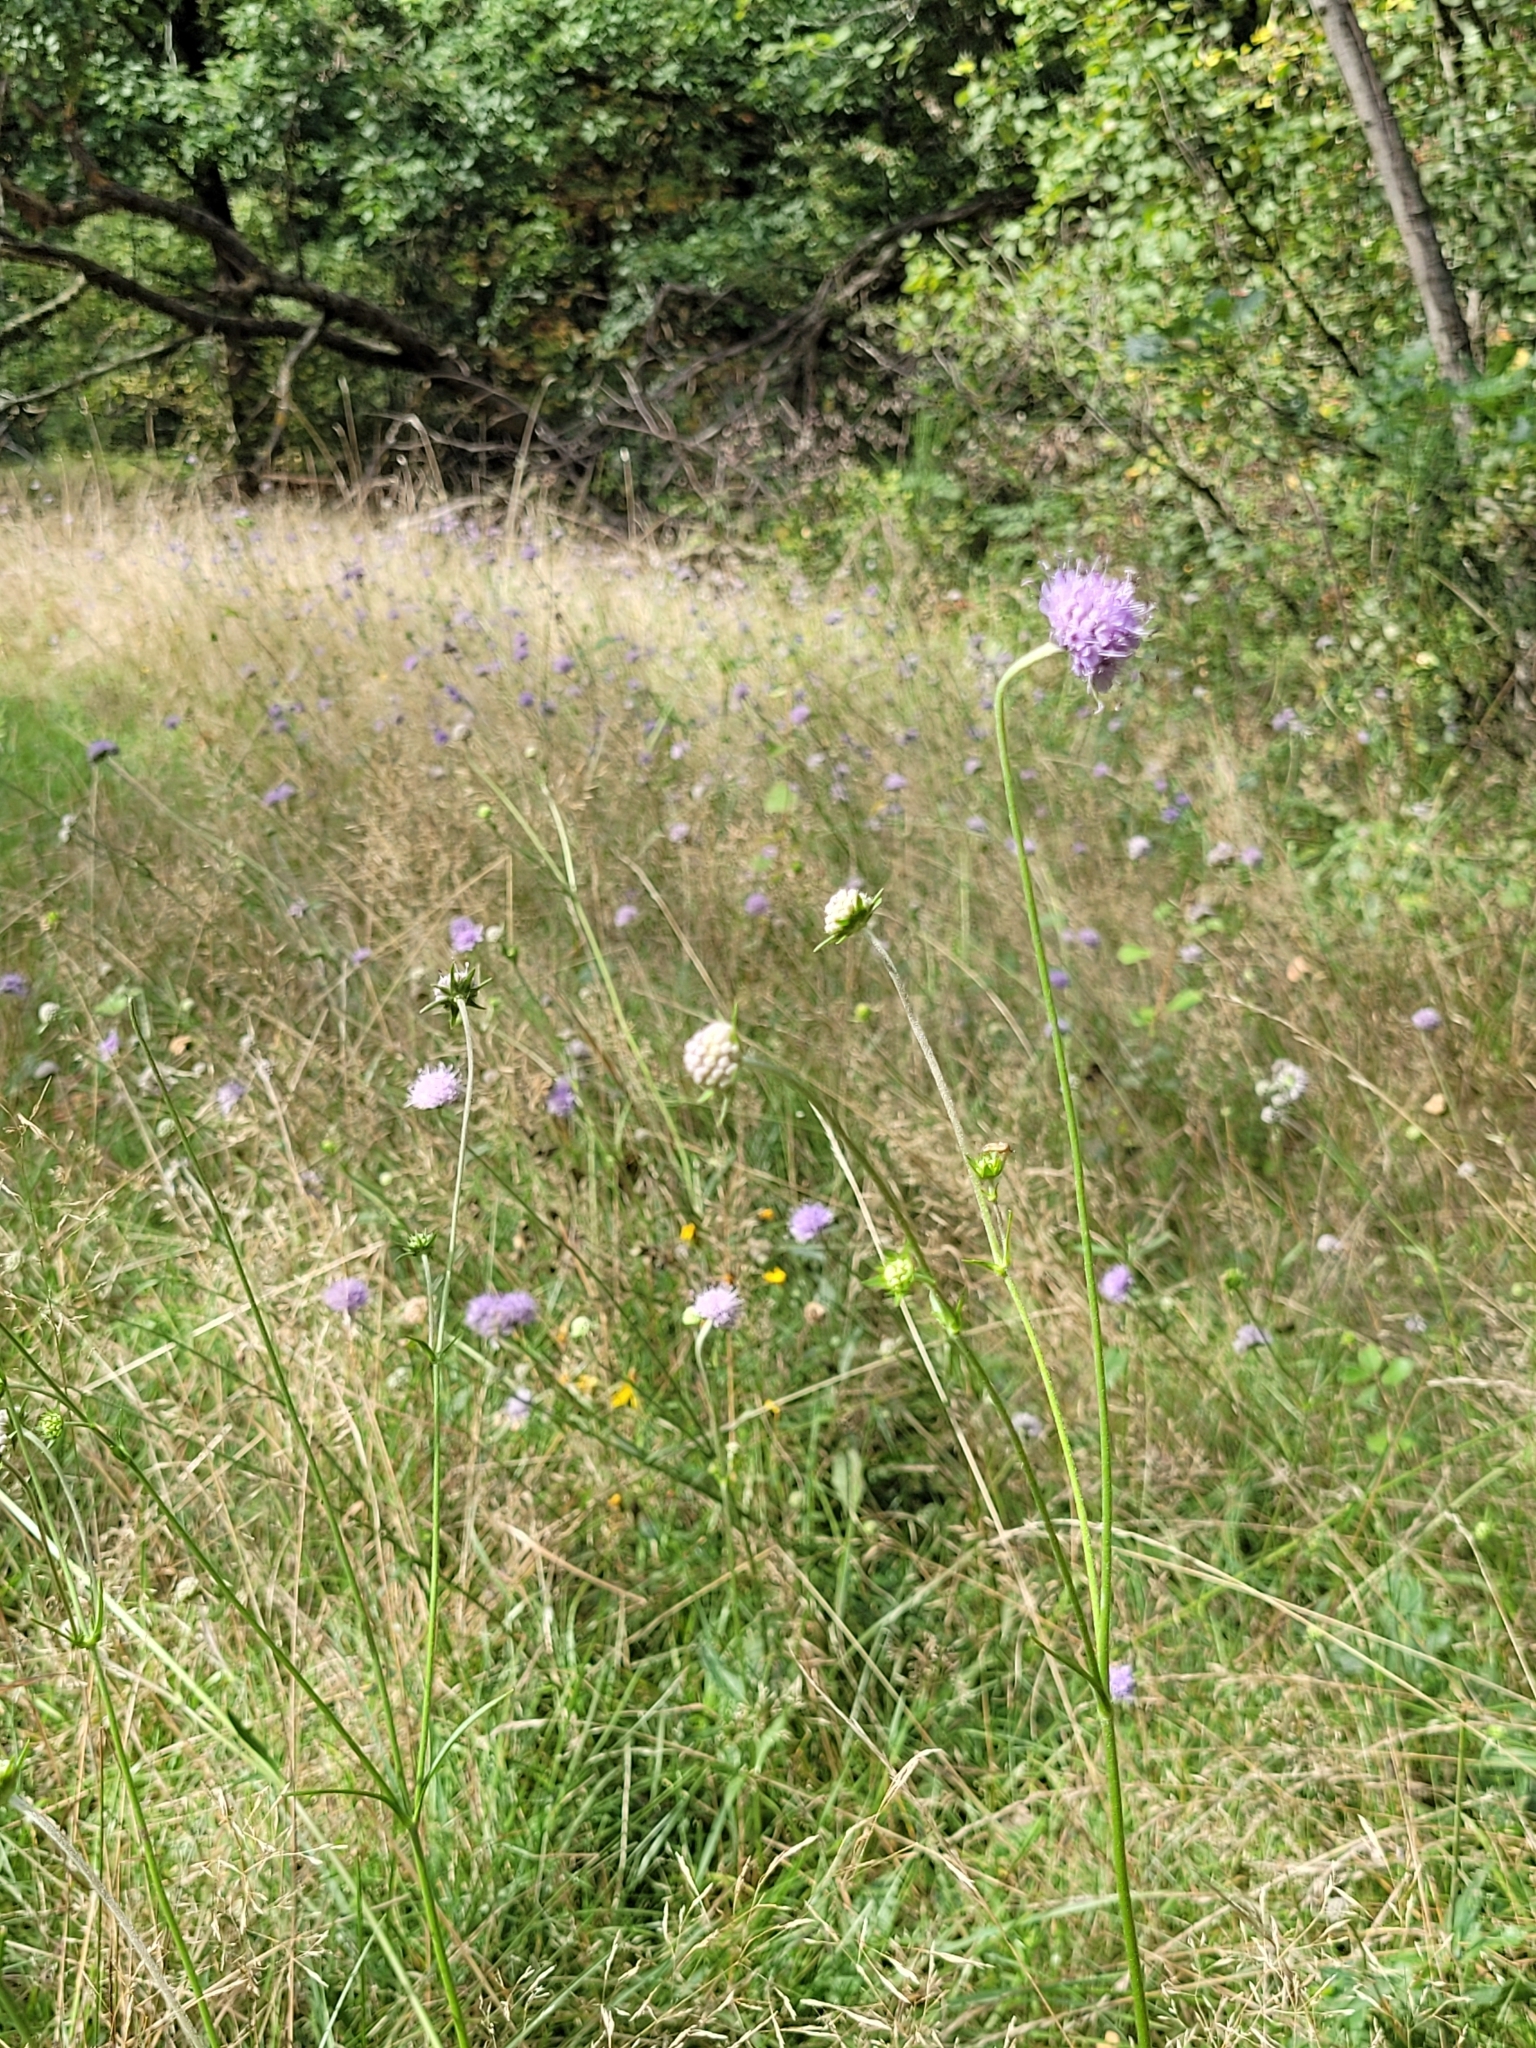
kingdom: Plantae
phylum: Tracheophyta
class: Magnoliopsida
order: Dipsacales
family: Caprifoliaceae
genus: Succisa
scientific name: Succisa pratensis
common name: Devil's-bit
